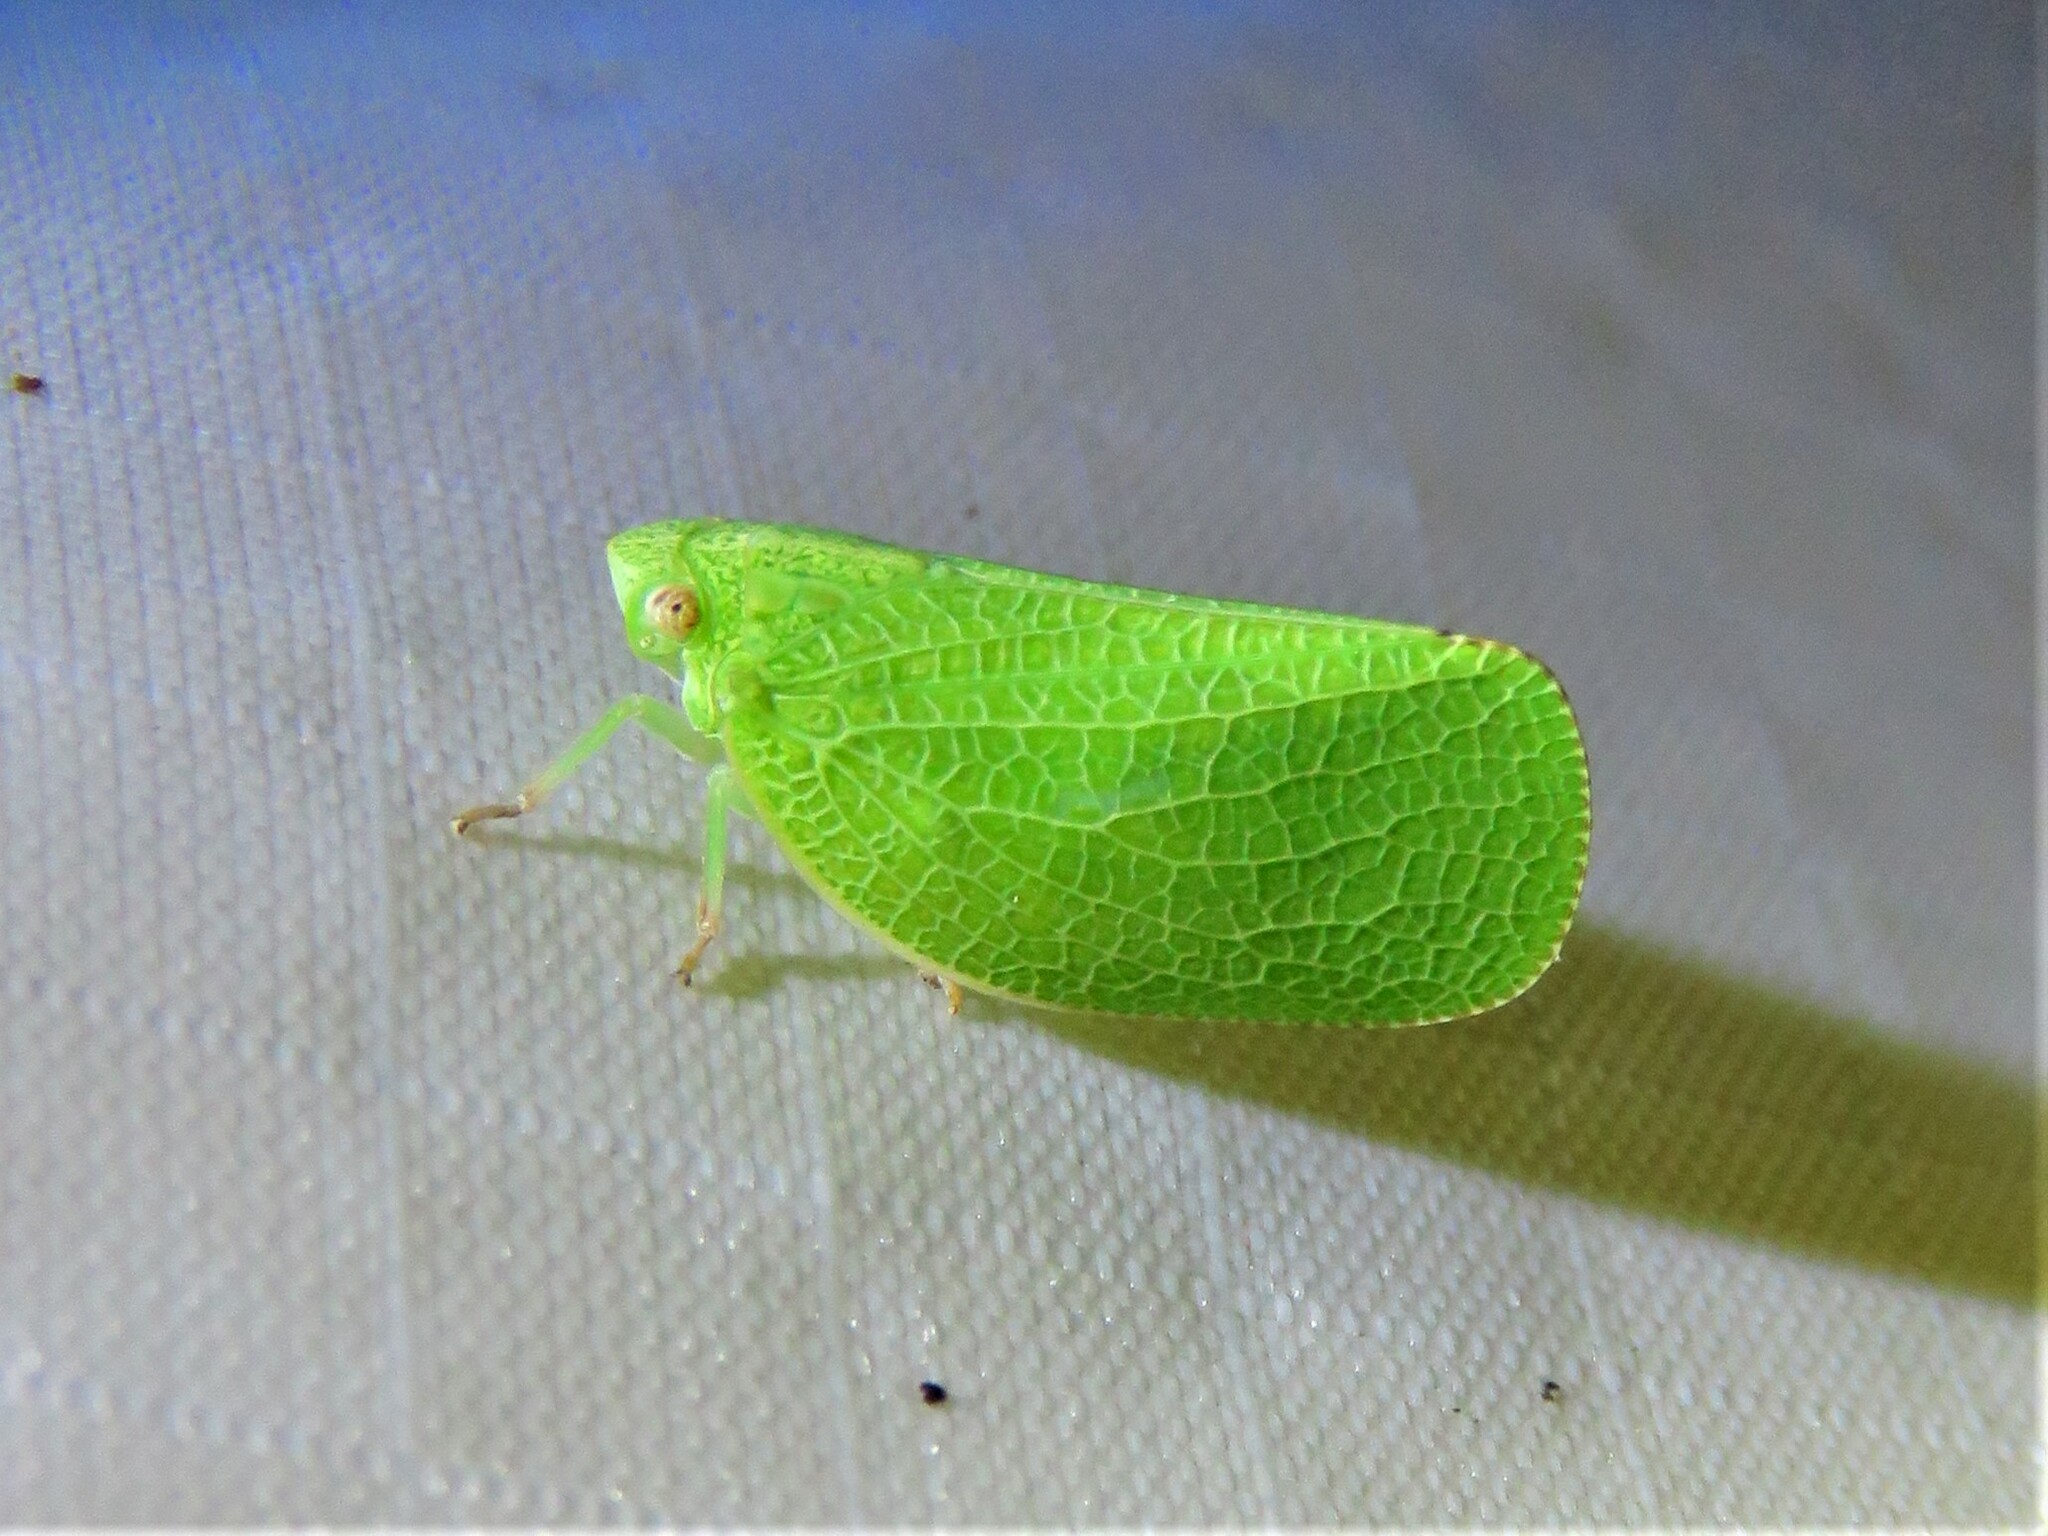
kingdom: Animalia
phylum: Arthropoda
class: Insecta
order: Hemiptera
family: Acanaloniidae
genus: Acanalonia
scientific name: Acanalonia conica
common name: Green cone-headed planthopper
